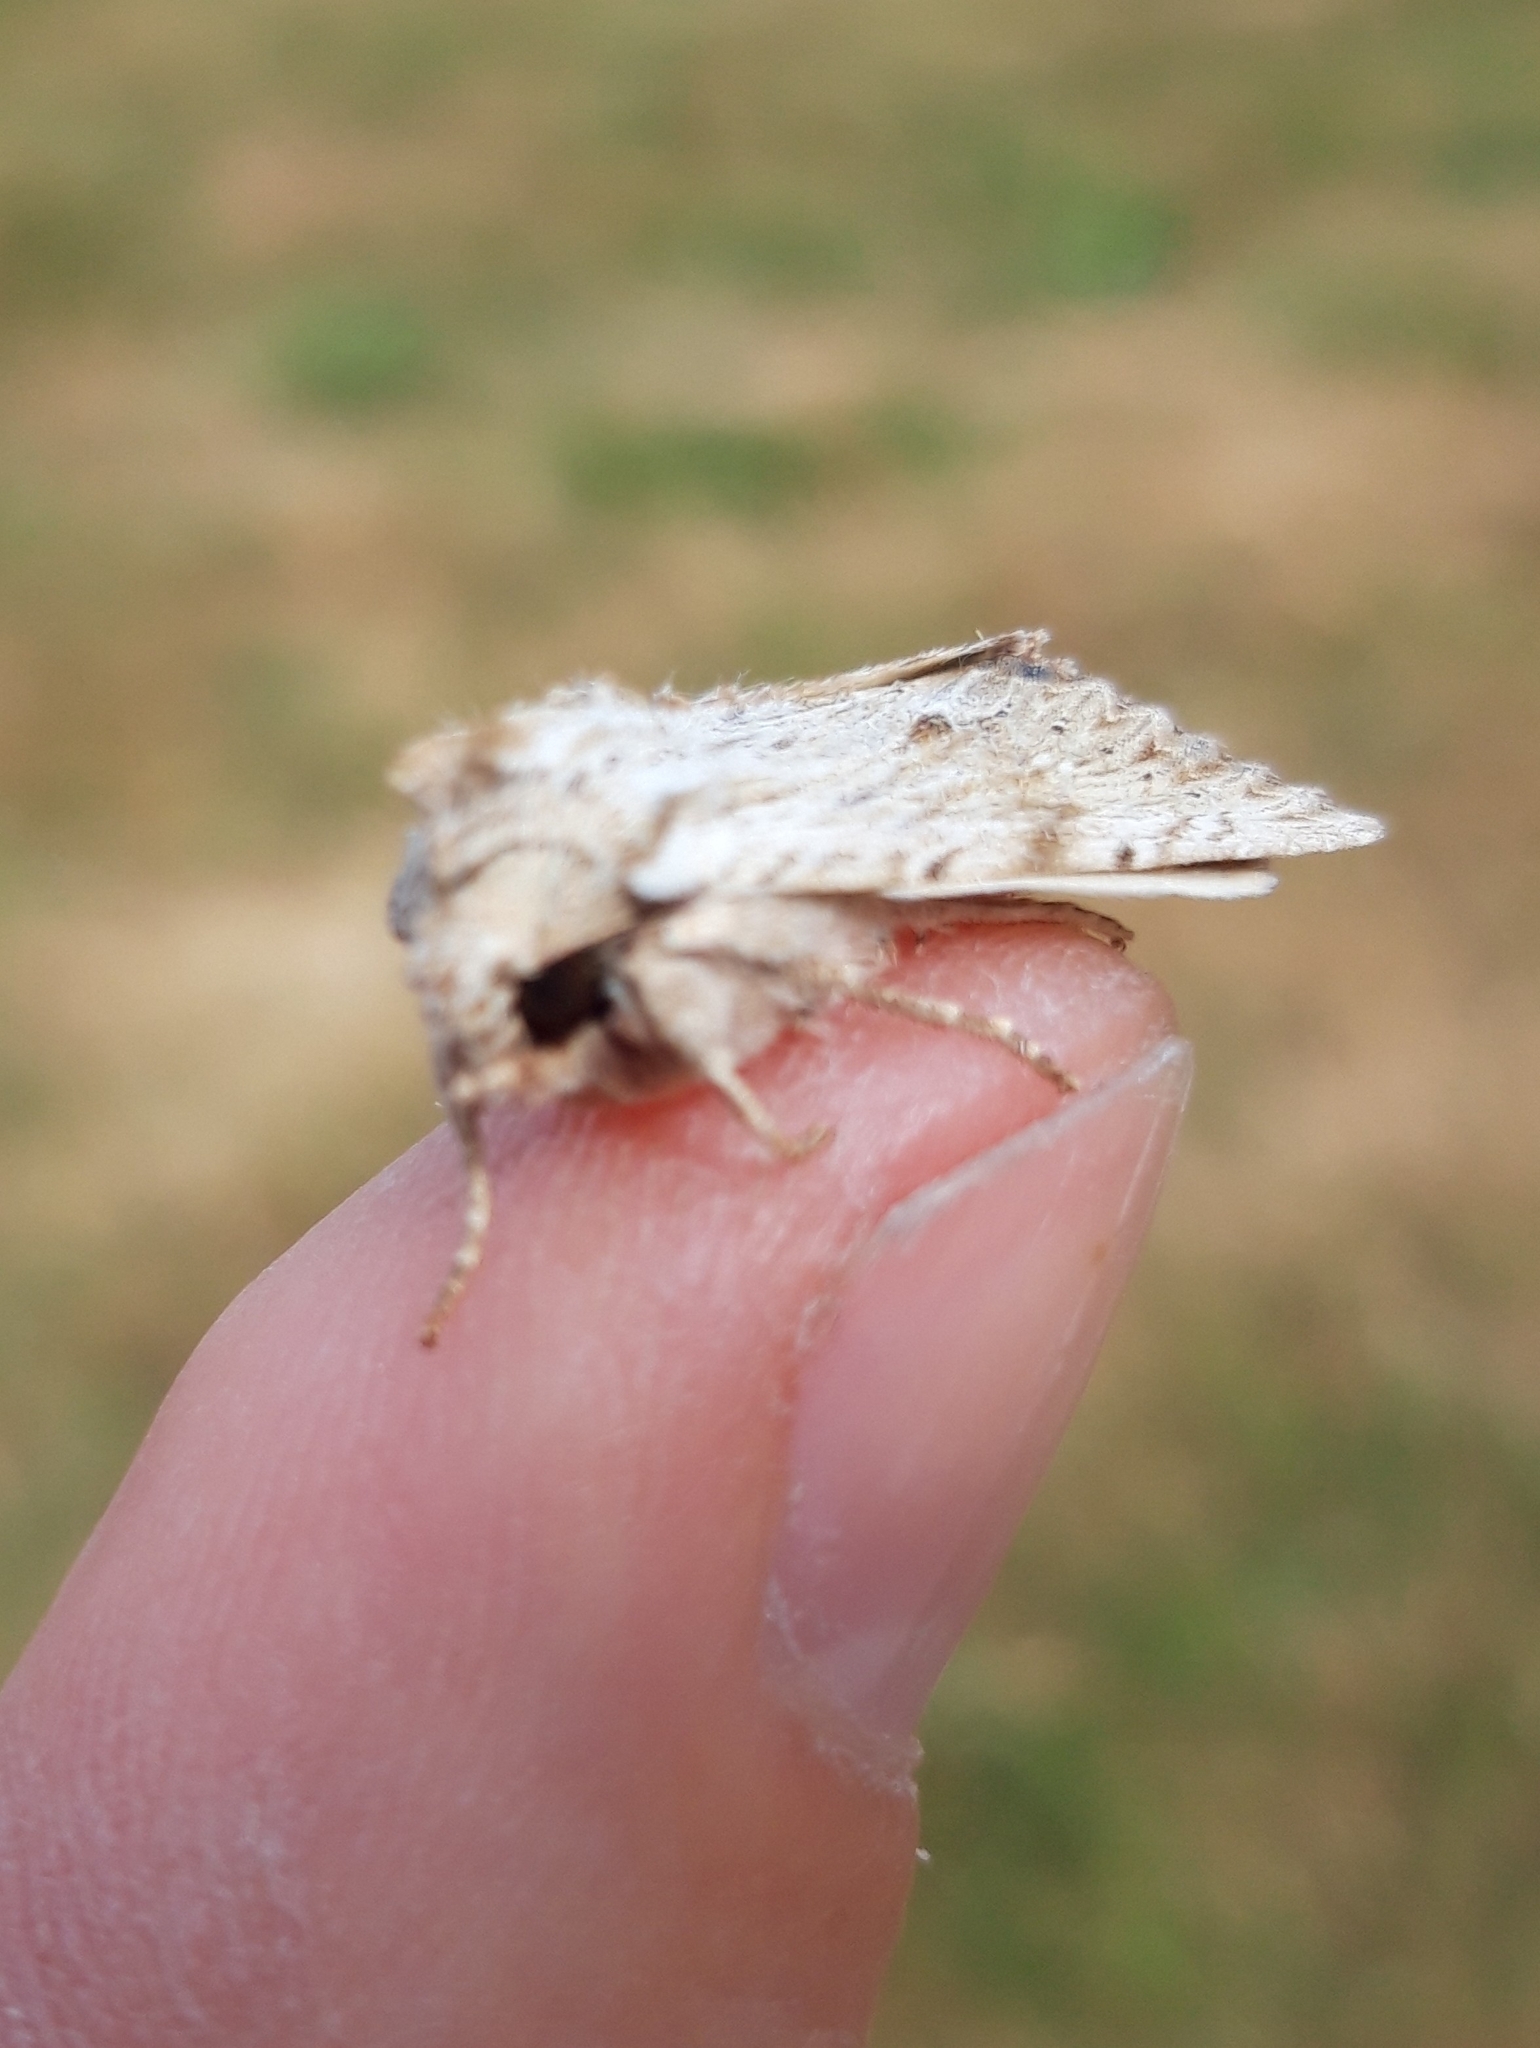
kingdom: Animalia
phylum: Arthropoda
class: Insecta
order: Lepidoptera
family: Noctuidae
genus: Apamea
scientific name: Apamea lithoxylaea
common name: Light arches
